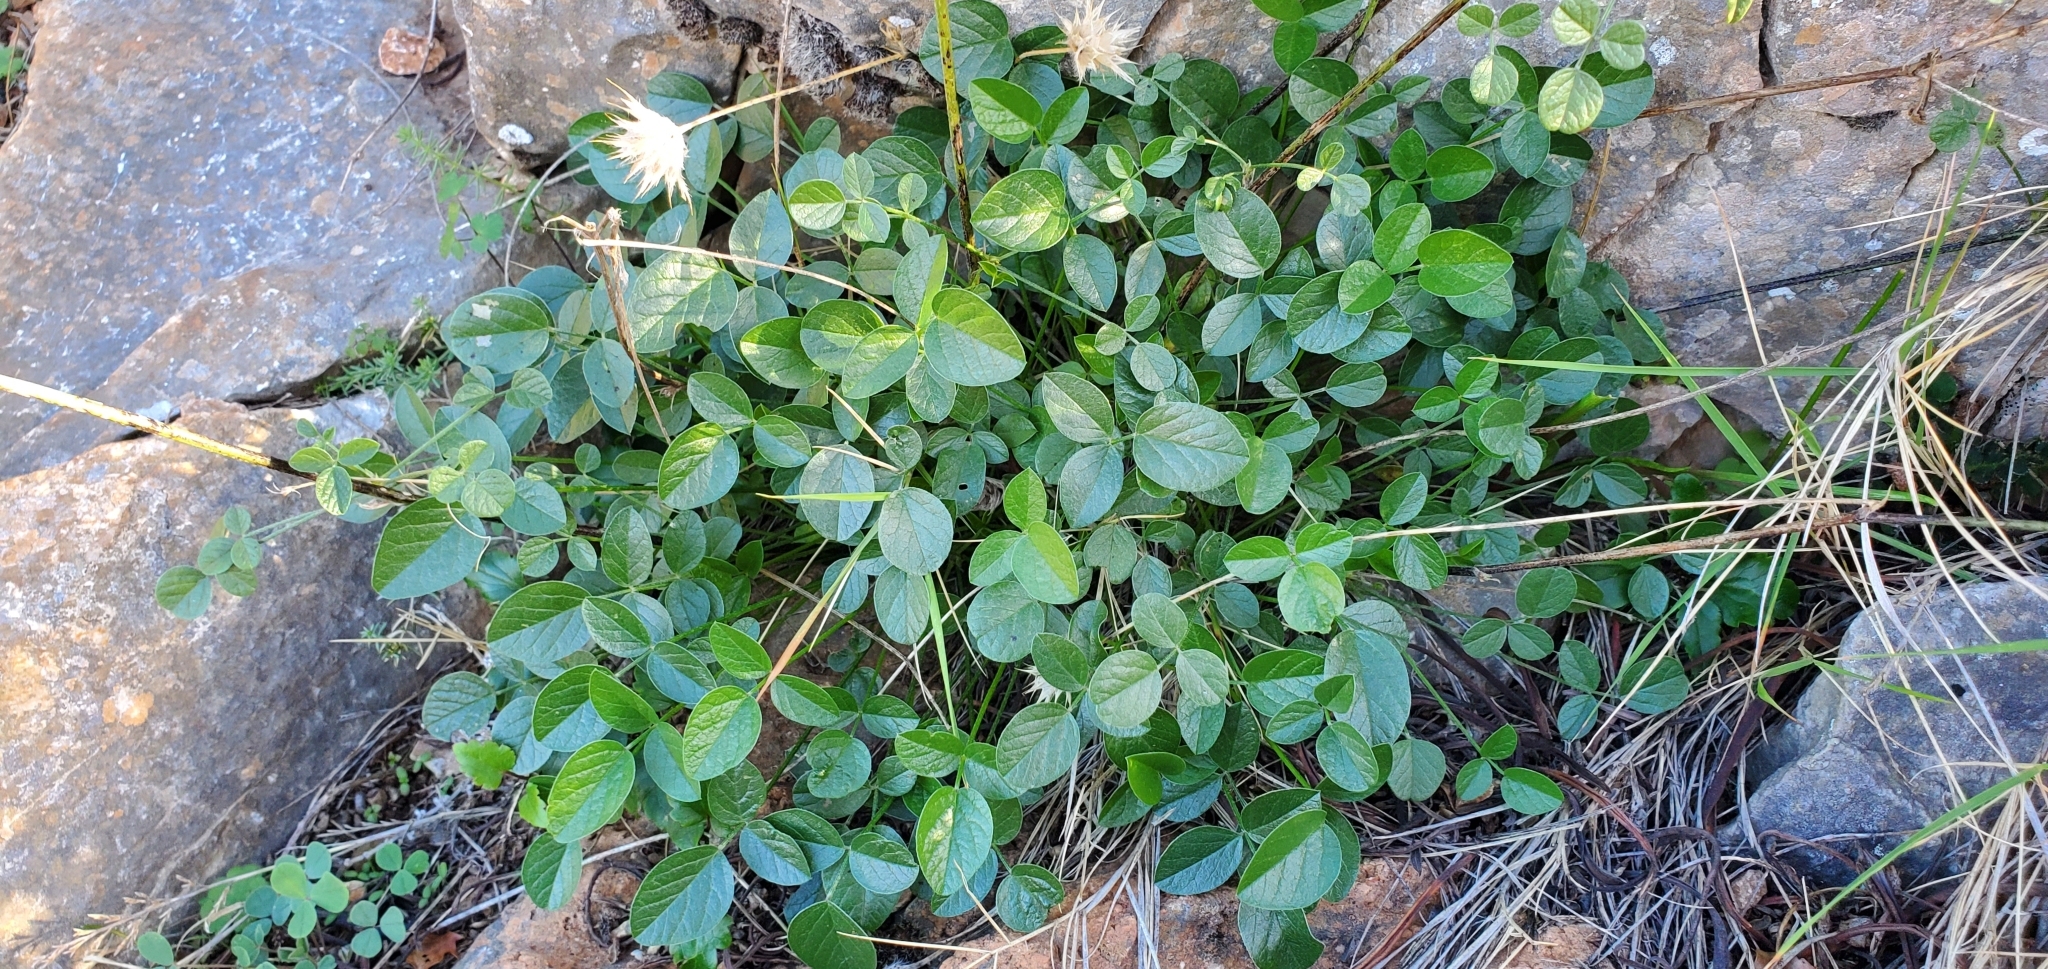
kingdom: Plantae
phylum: Tracheophyta
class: Magnoliopsida
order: Fabales
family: Fabaceae
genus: Bituminaria
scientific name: Bituminaria bituminosa
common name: Arabian pea
